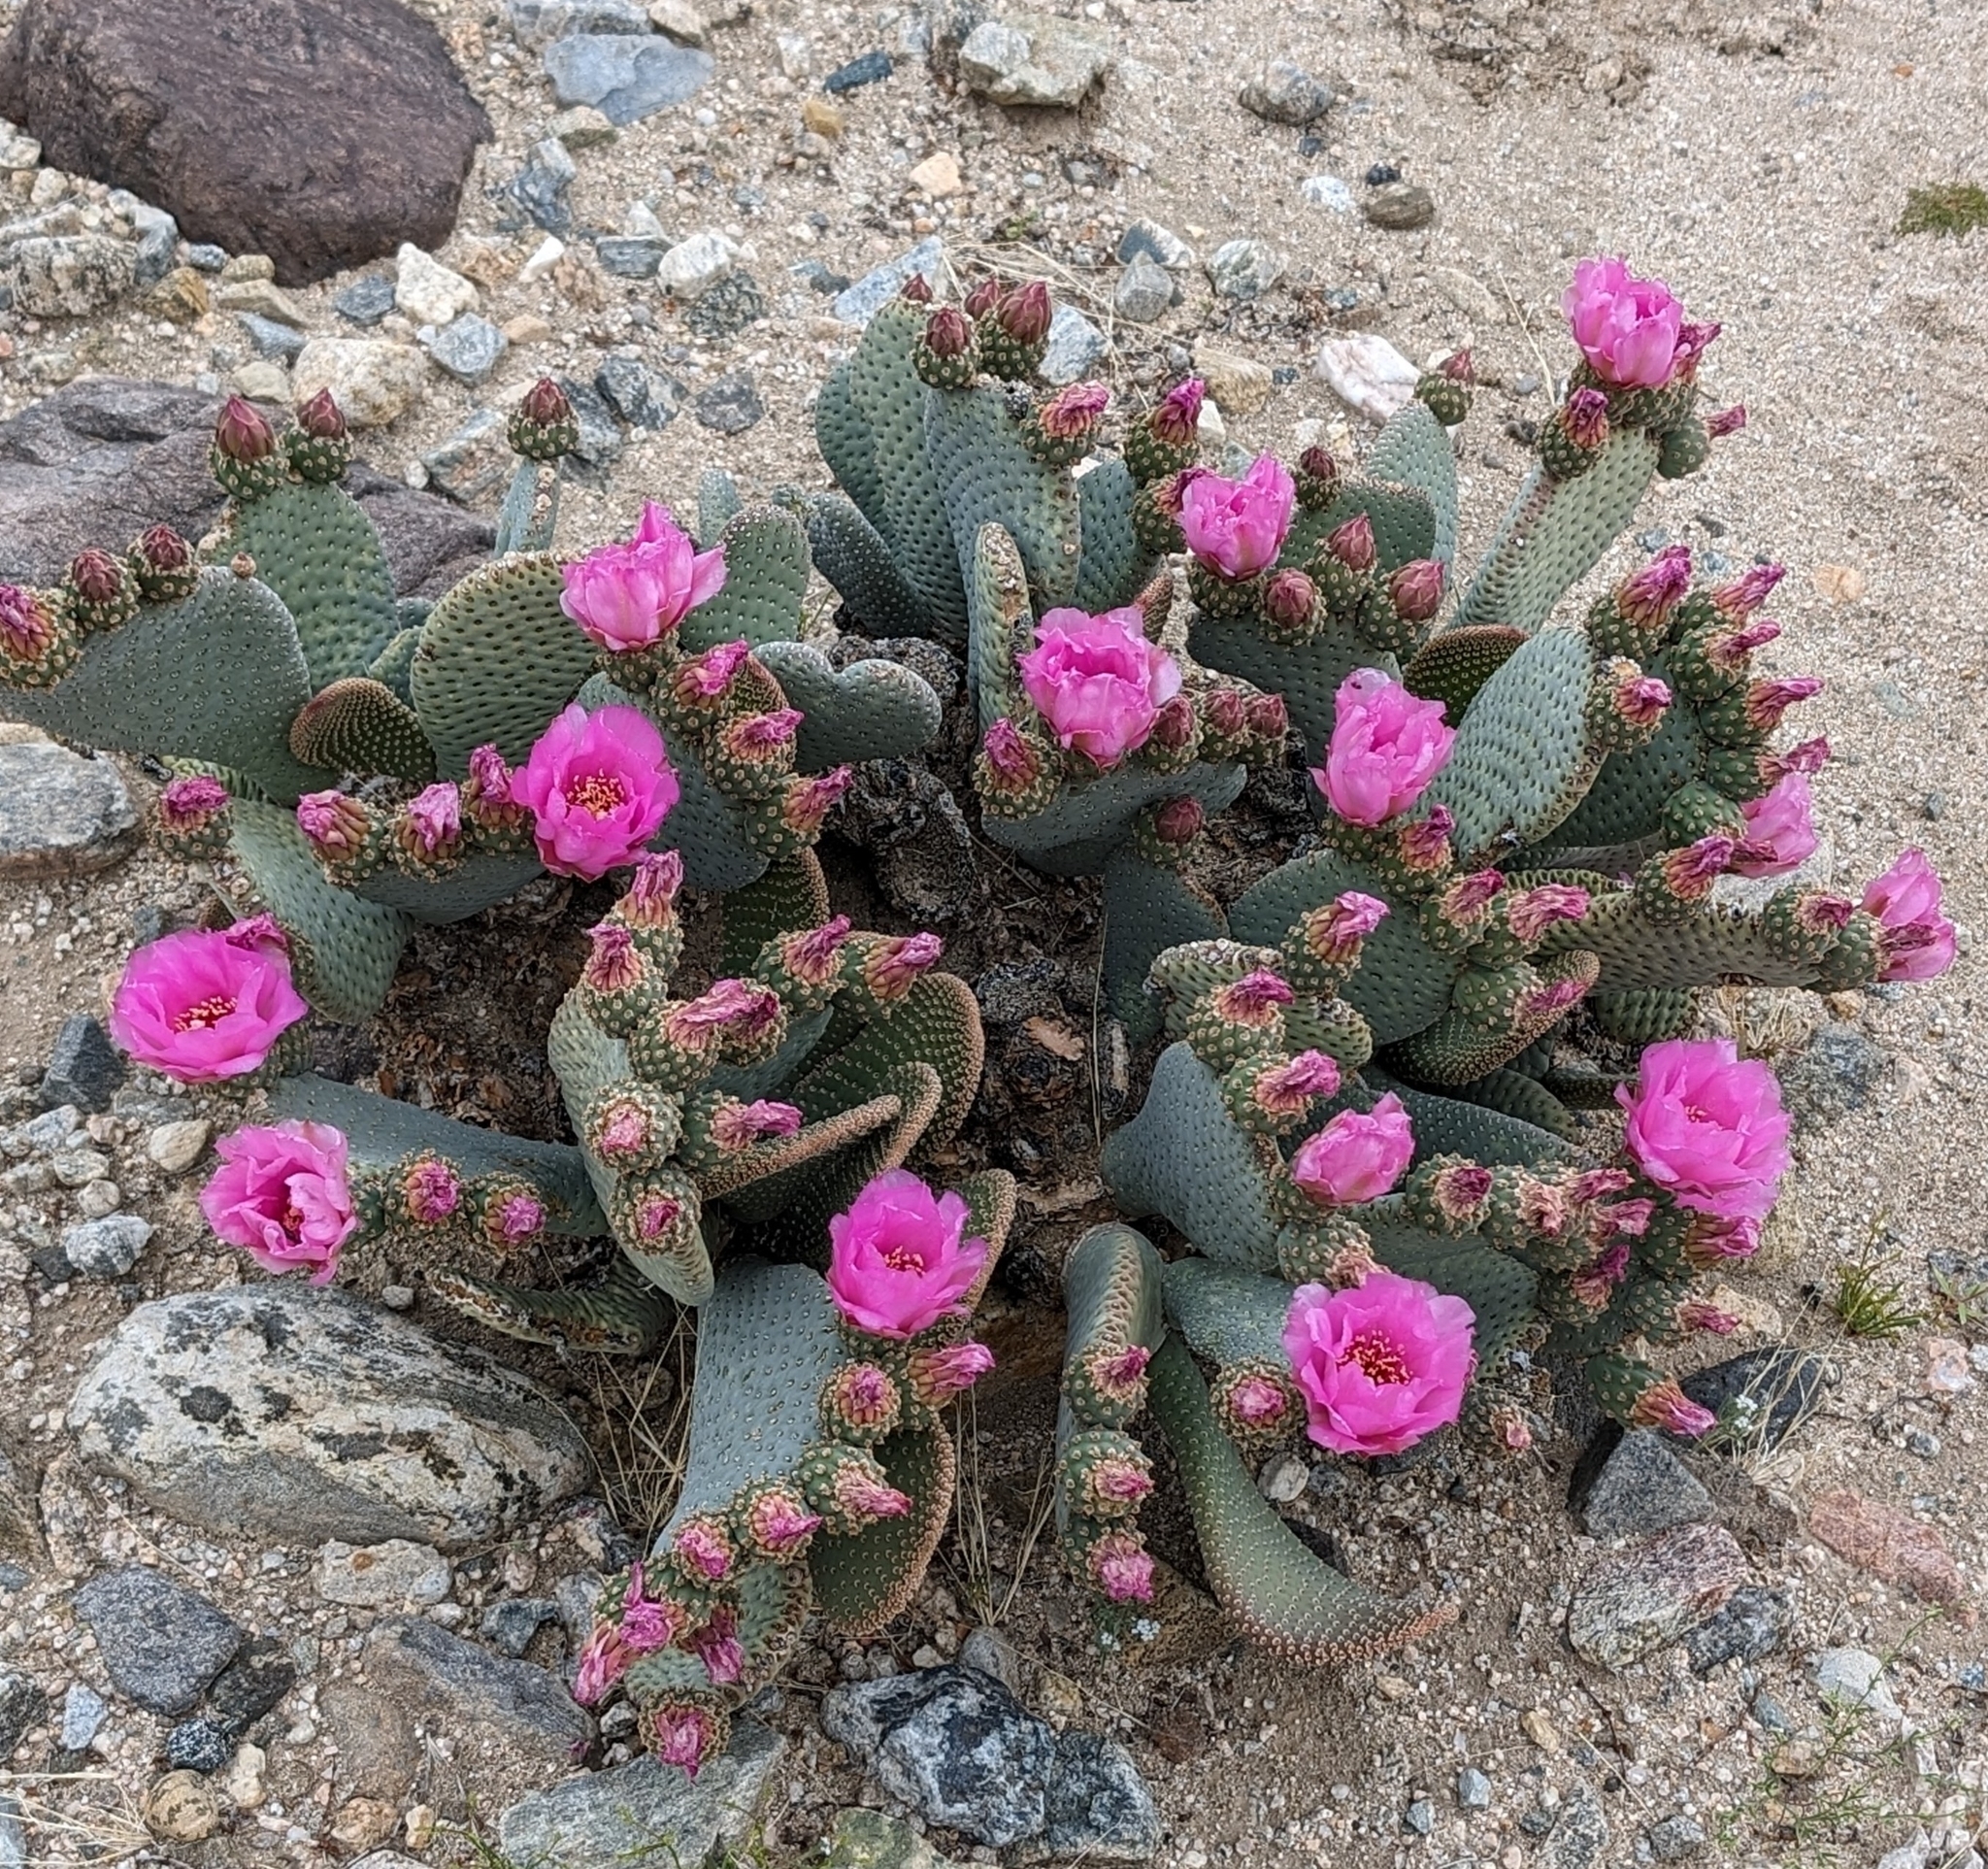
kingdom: Plantae
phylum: Tracheophyta
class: Magnoliopsida
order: Caryophyllales
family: Cactaceae
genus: Opuntia
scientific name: Opuntia basilaris
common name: Beavertail prickly-pear
